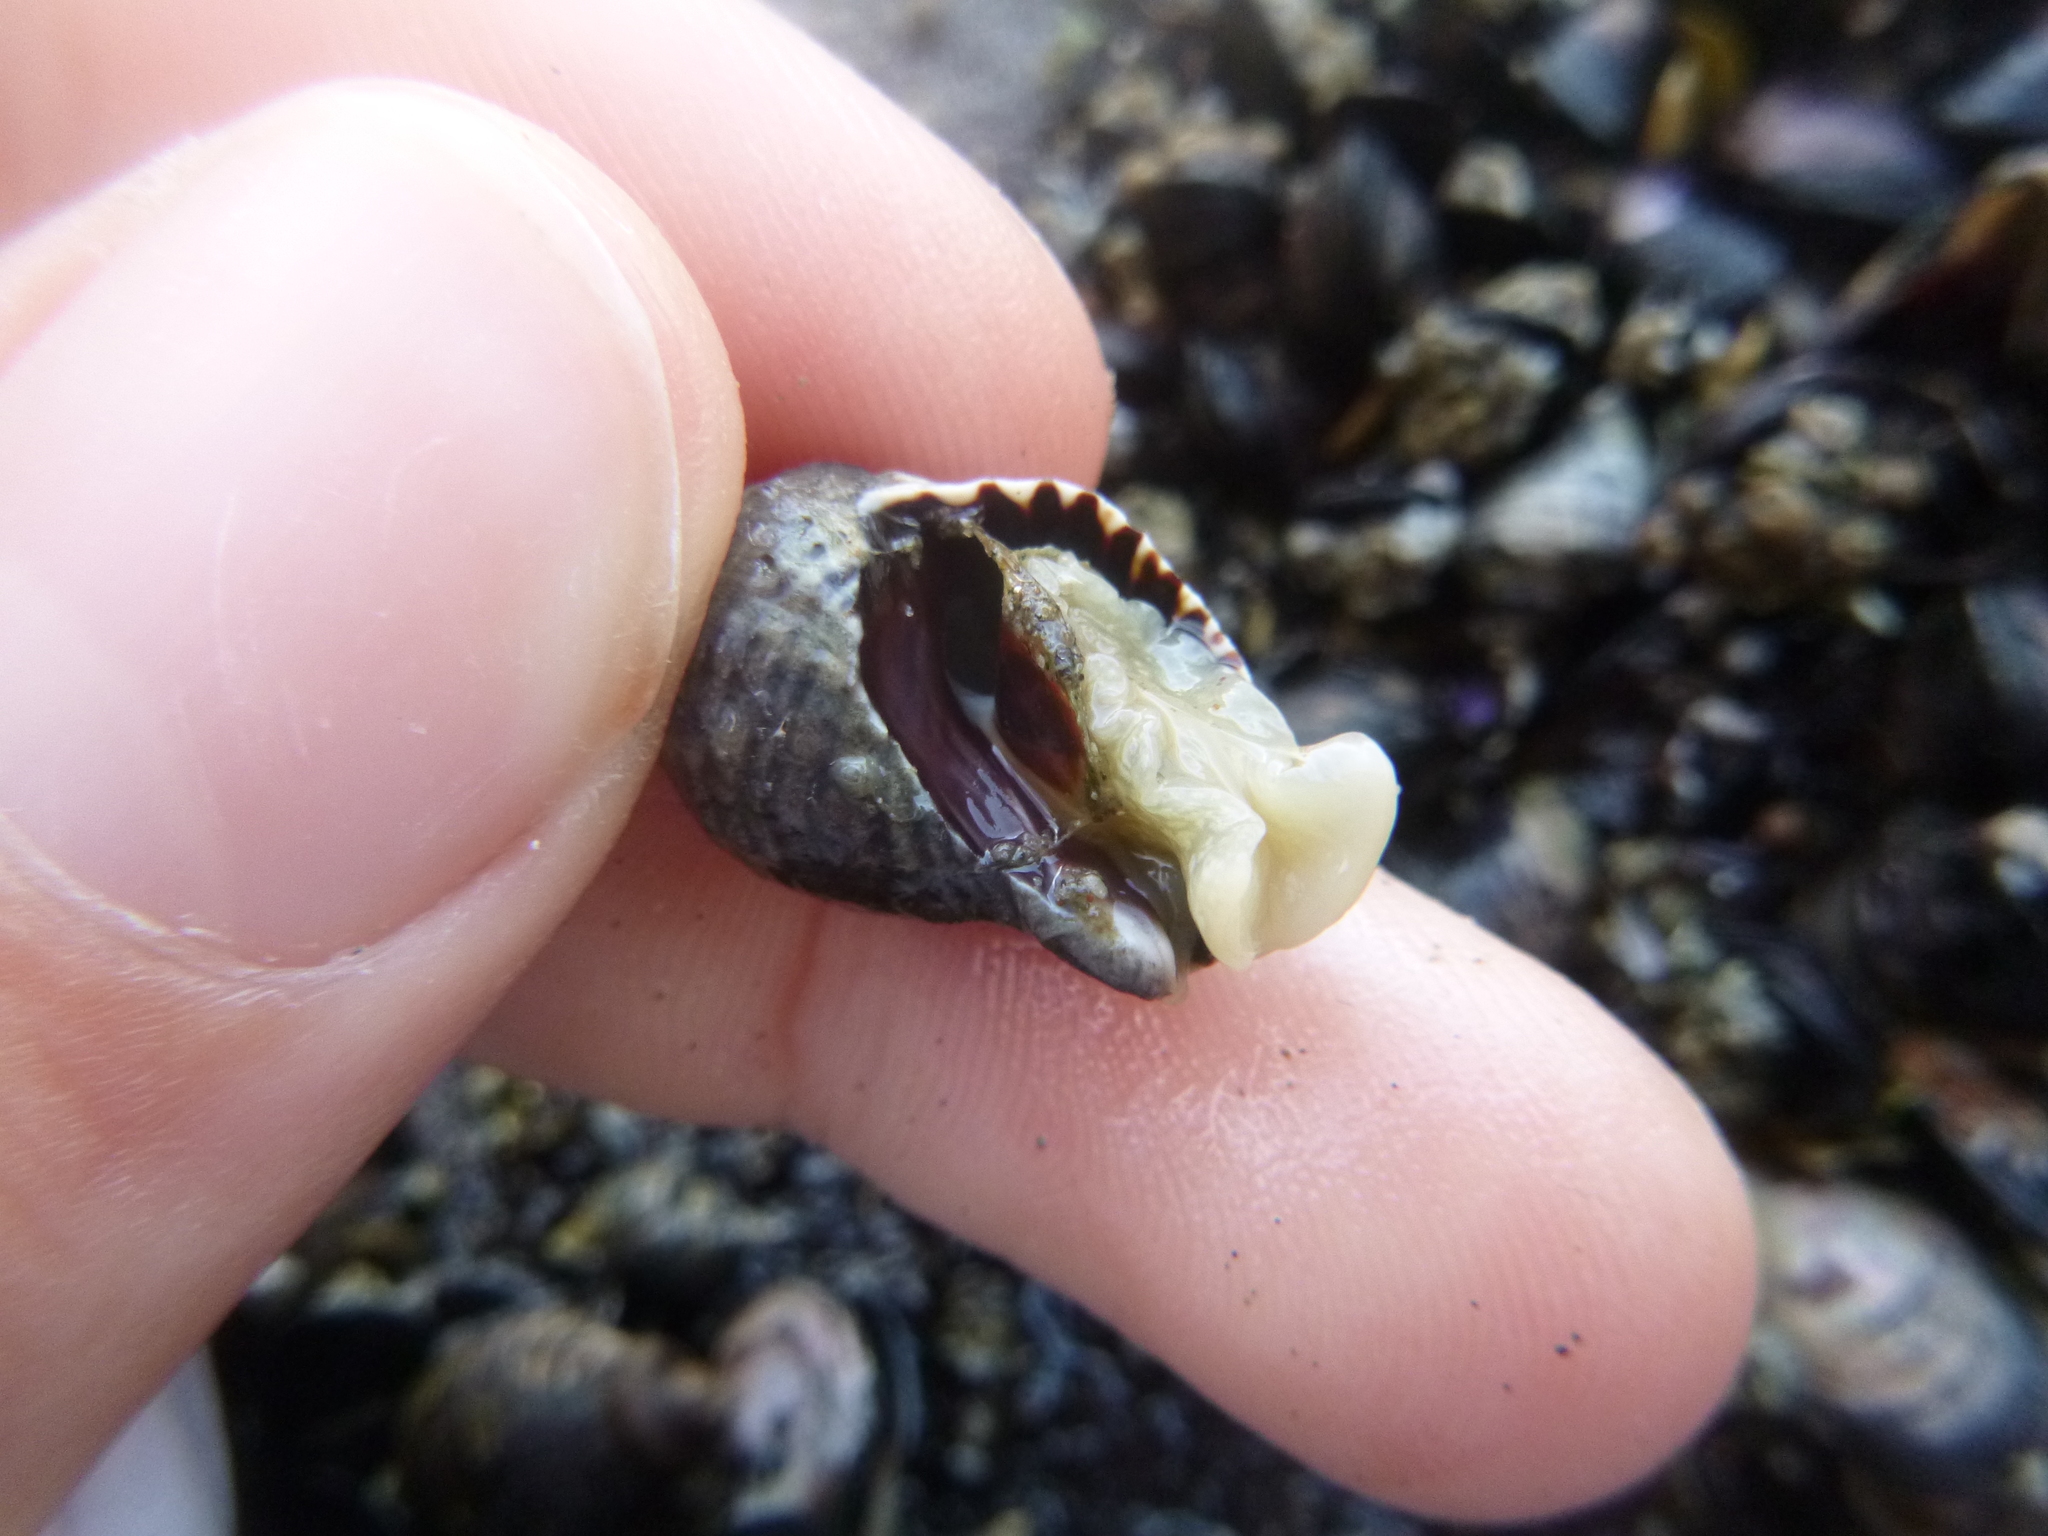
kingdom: Animalia
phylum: Mollusca
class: Gastropoda
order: Neogastropoda
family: Muricidae
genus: Haustrum
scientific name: Haustrum albomarginatum
